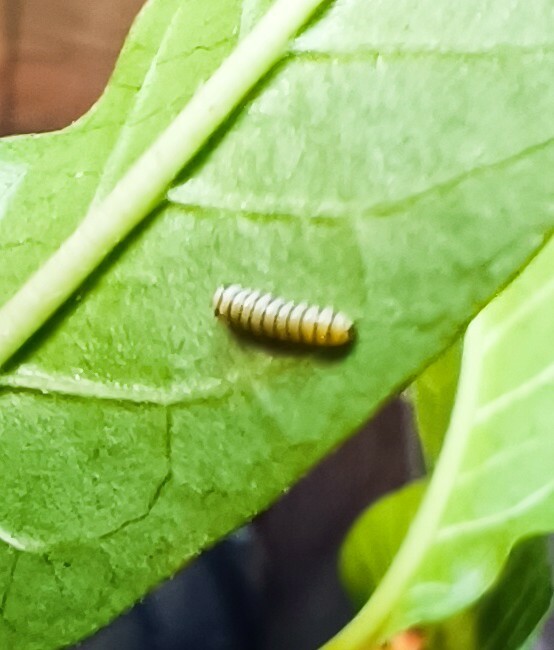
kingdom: Animalia
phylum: Arthropoda
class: Insecta
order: Lepidoptera
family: Nymphalidae
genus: Danaus
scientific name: Danaus plexippus
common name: Monarch
